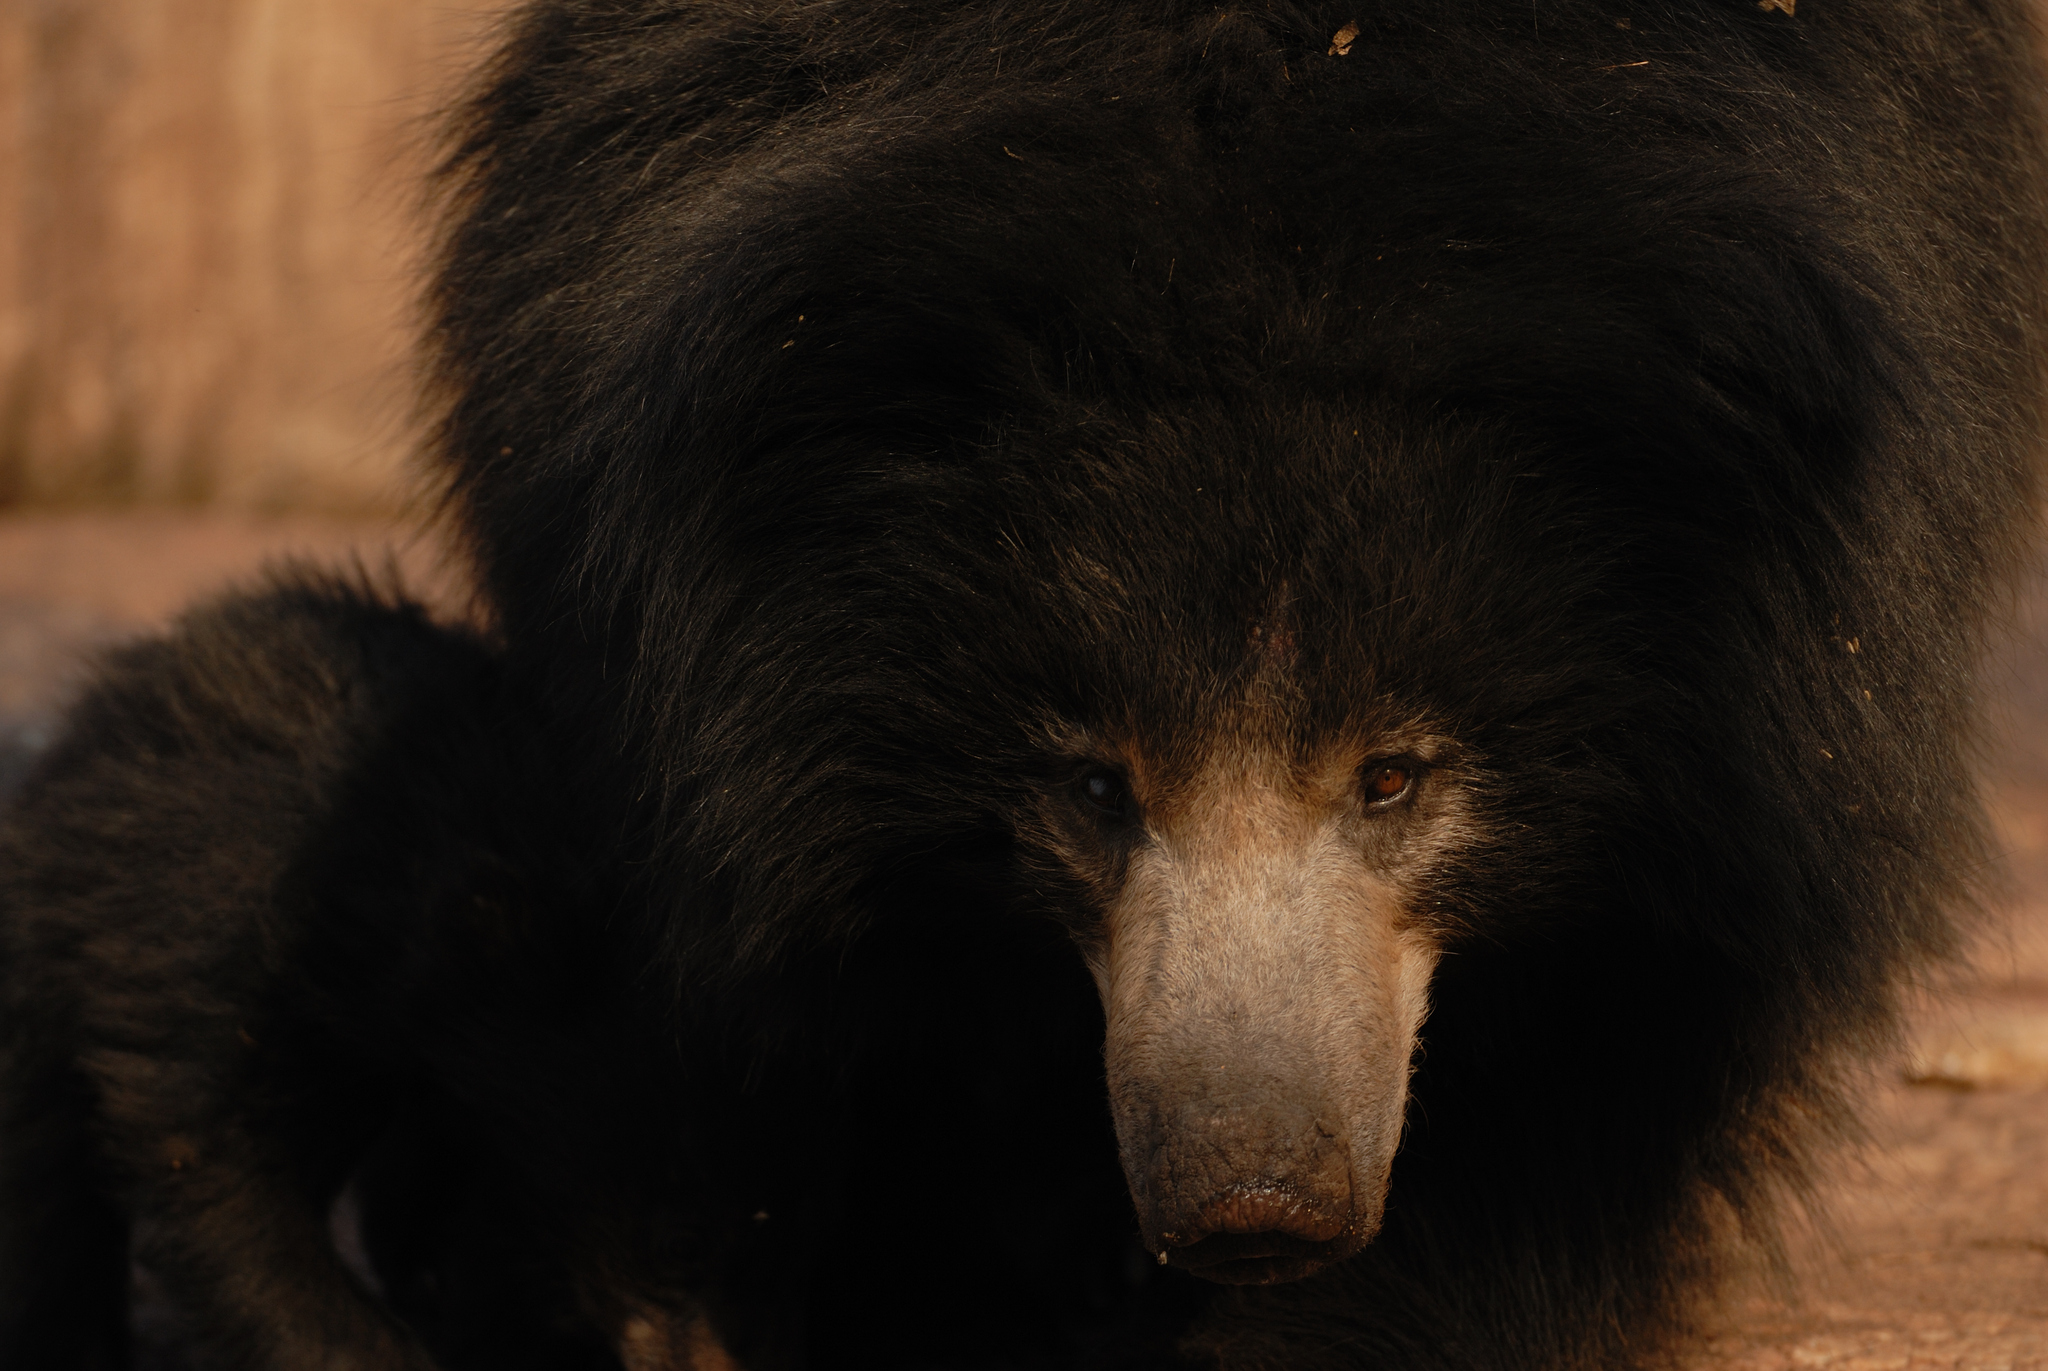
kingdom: Animalia
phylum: Chordata
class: Mammalia
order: Carnivora
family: Ursidae
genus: Melursus
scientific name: Melursus ursinus
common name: Sloth bear
